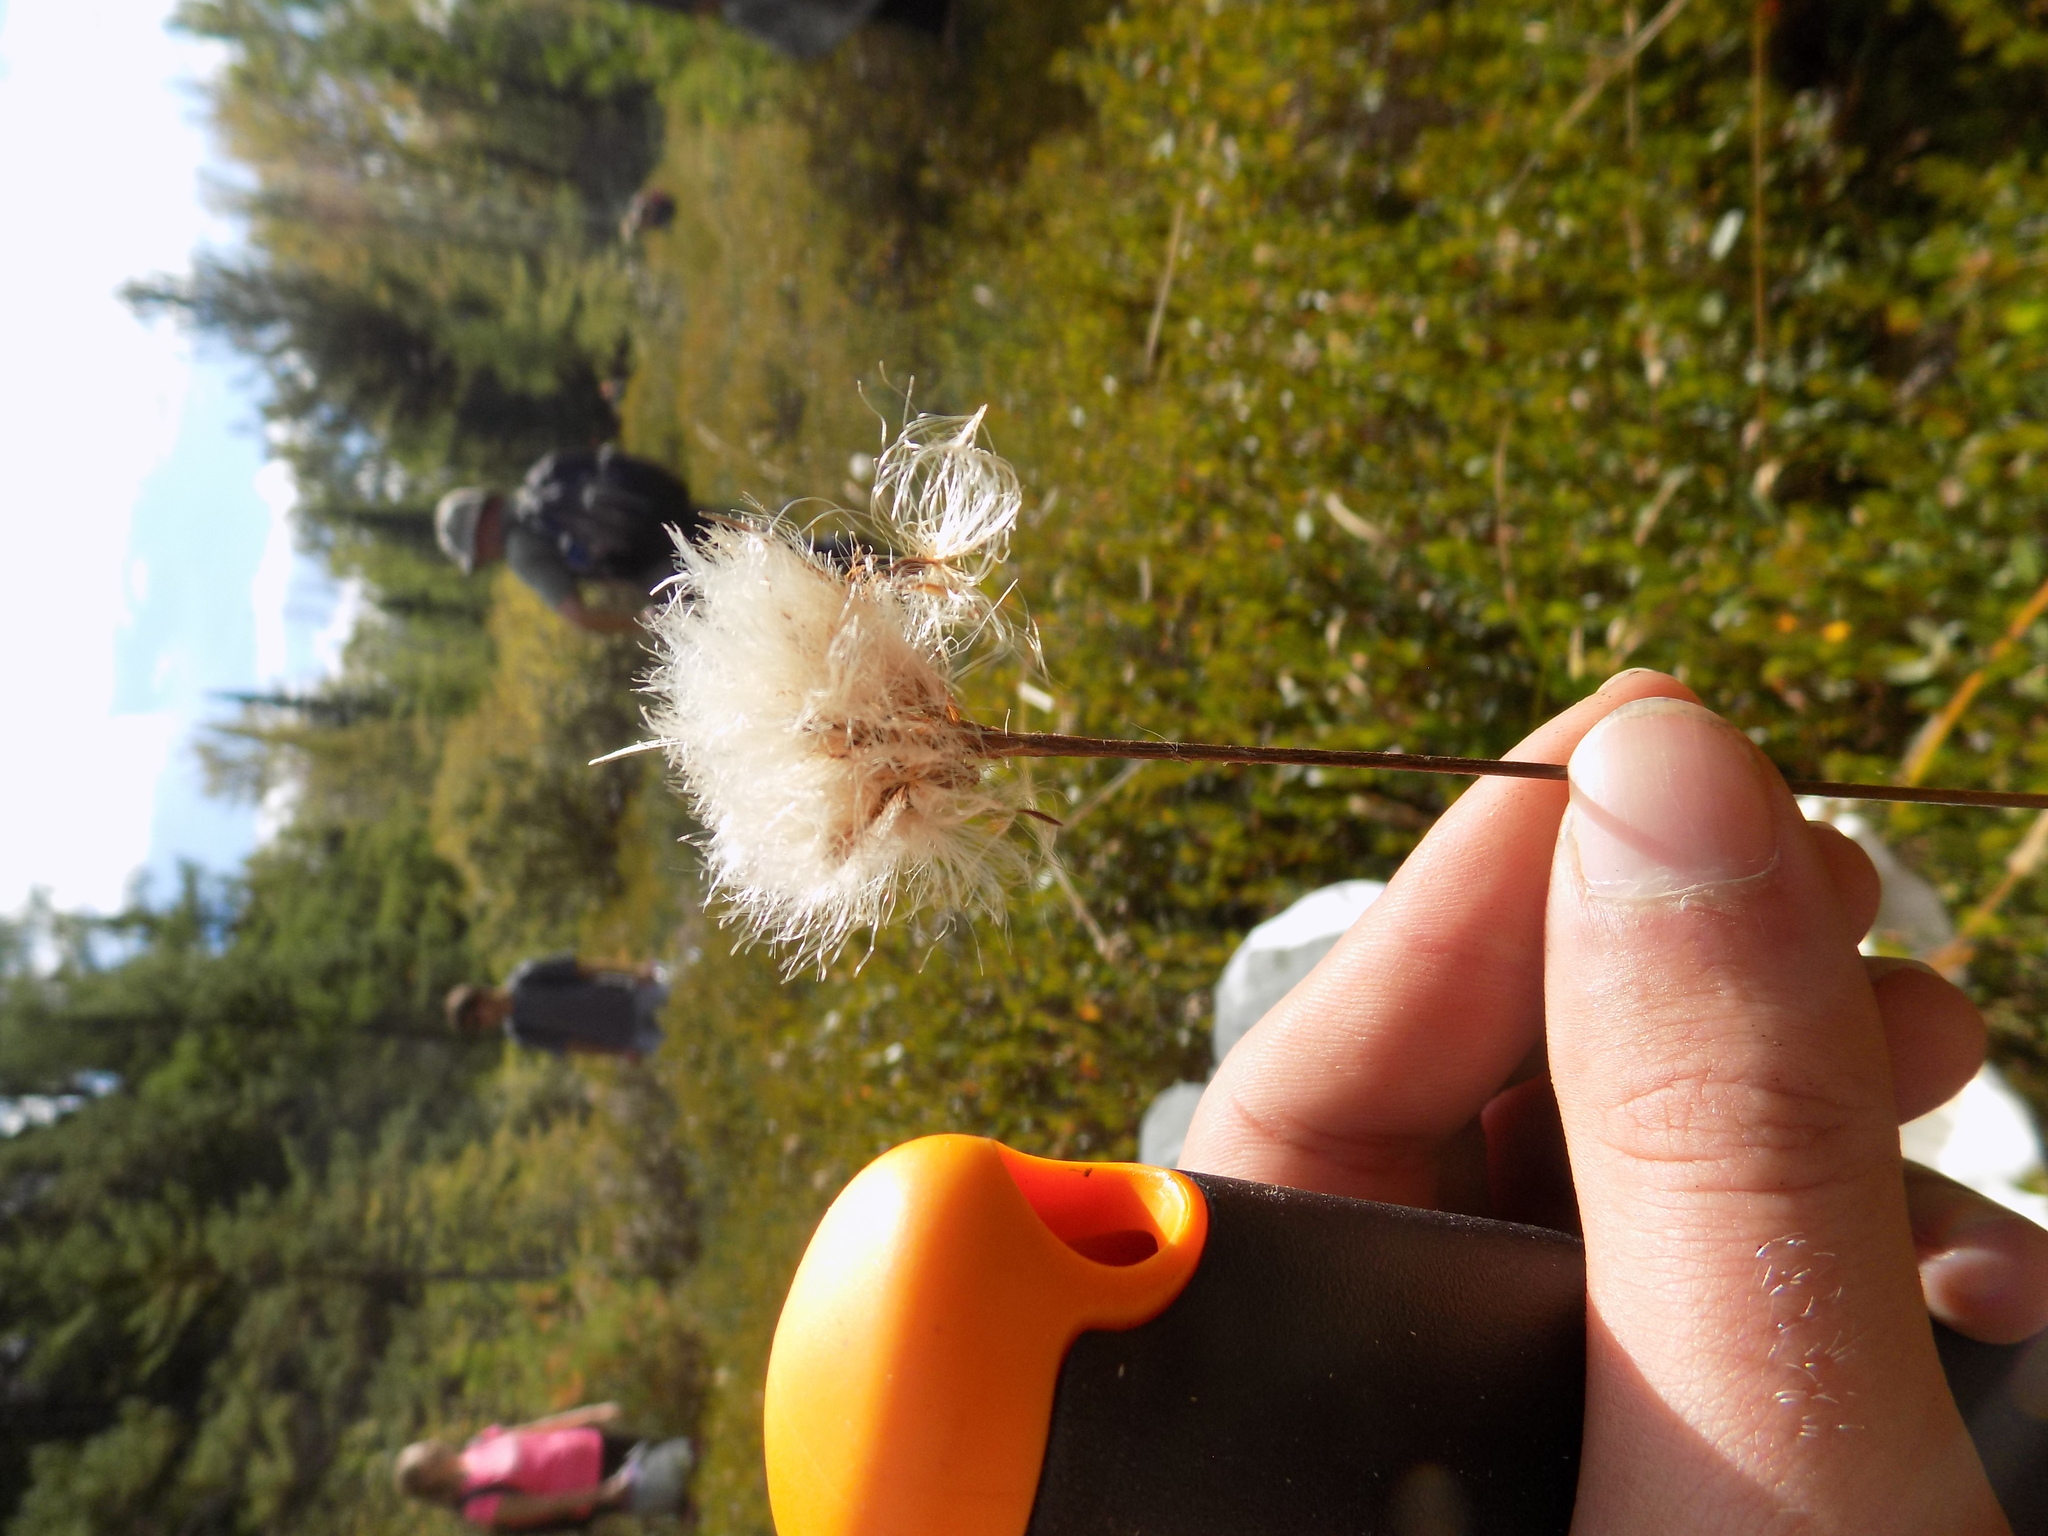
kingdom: Plantae
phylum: Tracheophyta
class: Liliopsida
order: Poales
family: Cyperaceae
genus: Eriophorum
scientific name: Eriophorum virginicum
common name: Tawny cottongrass
